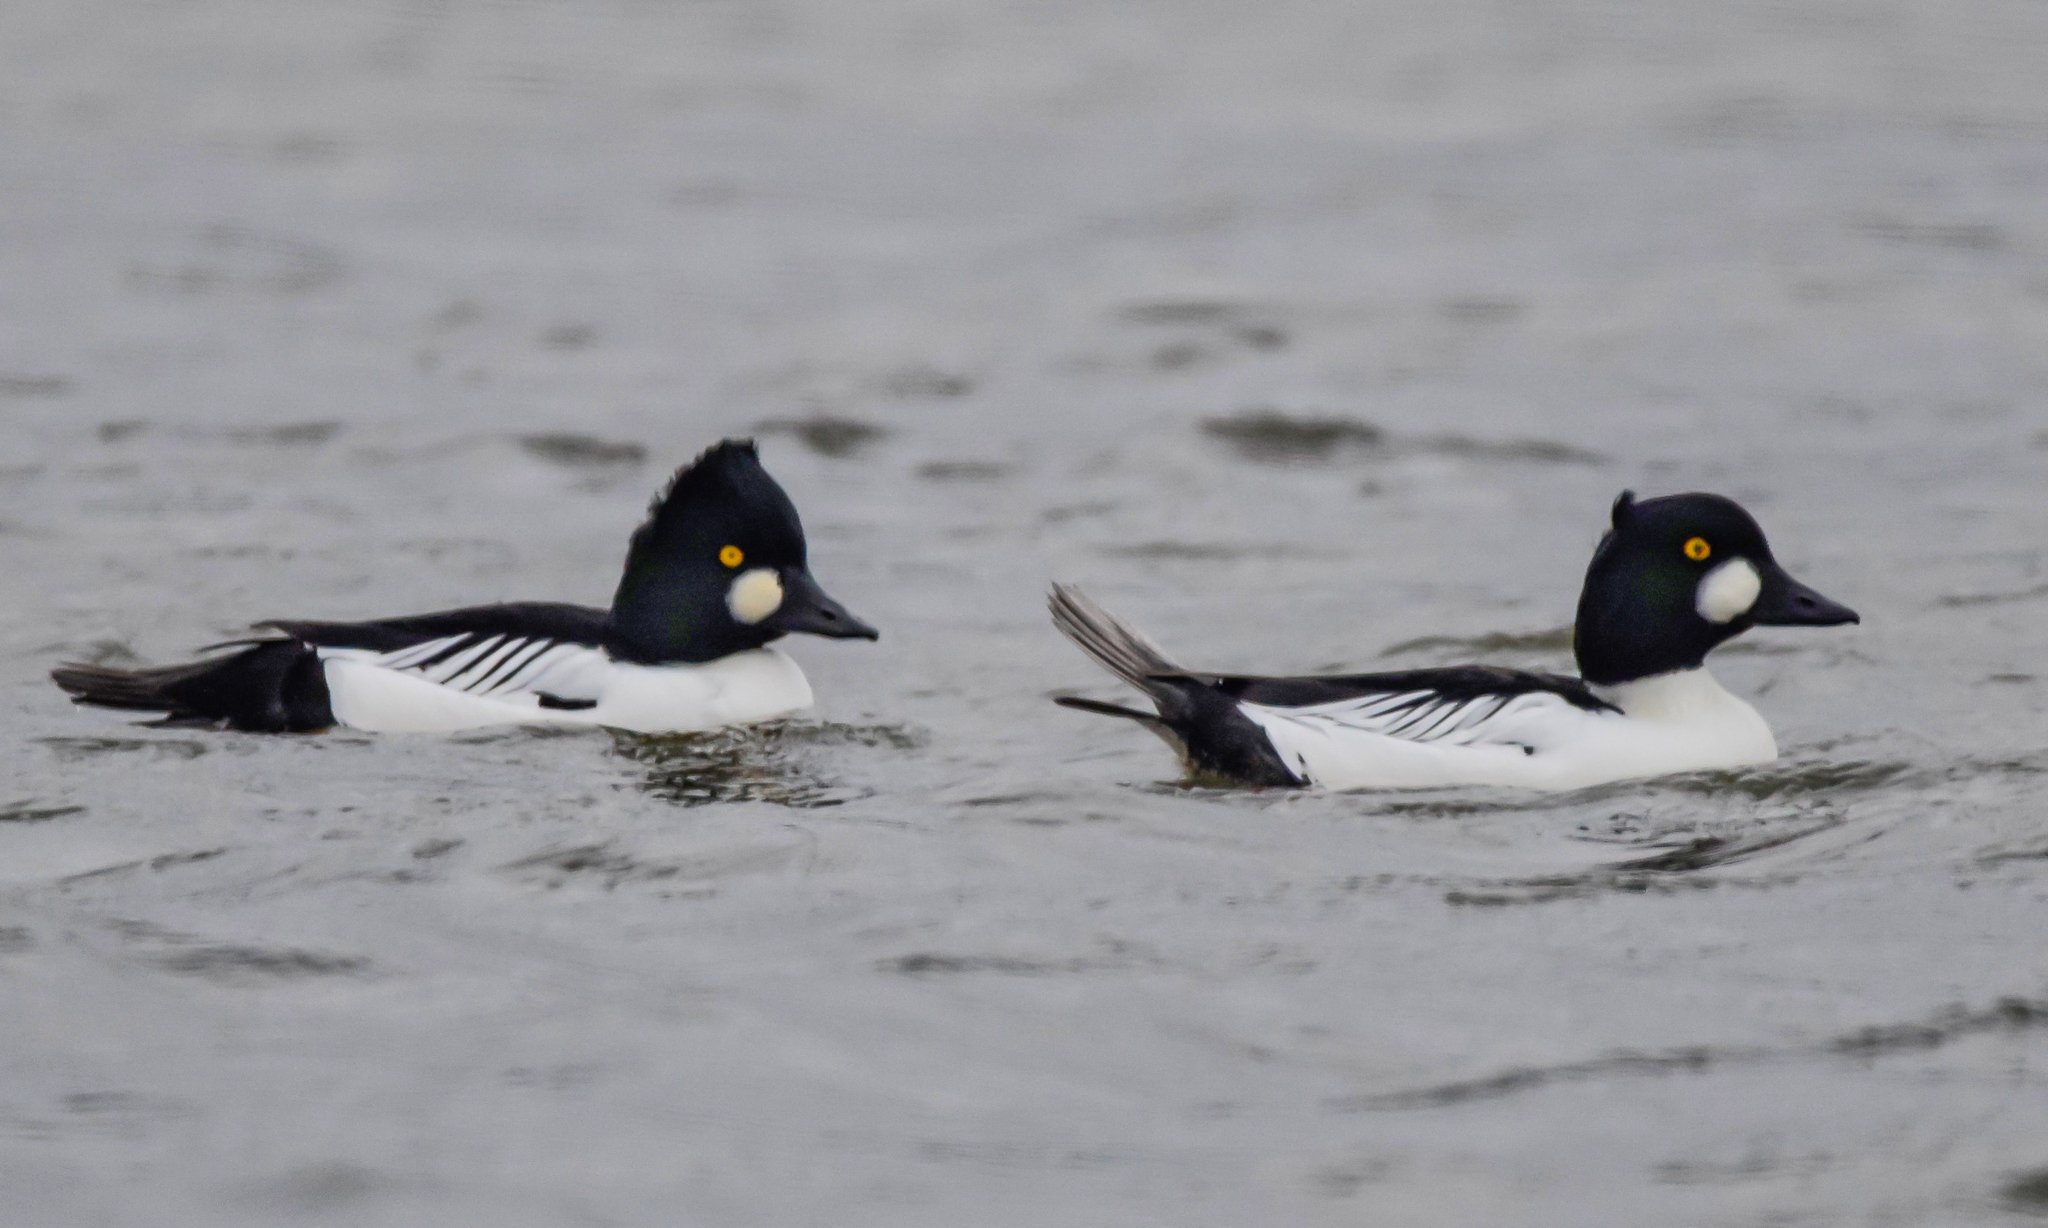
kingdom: Animalia
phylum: Chordata
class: Aves
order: Anseriformes
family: Anatidae
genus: Bucephala
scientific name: Bucephala clangula
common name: Common goldeneye
